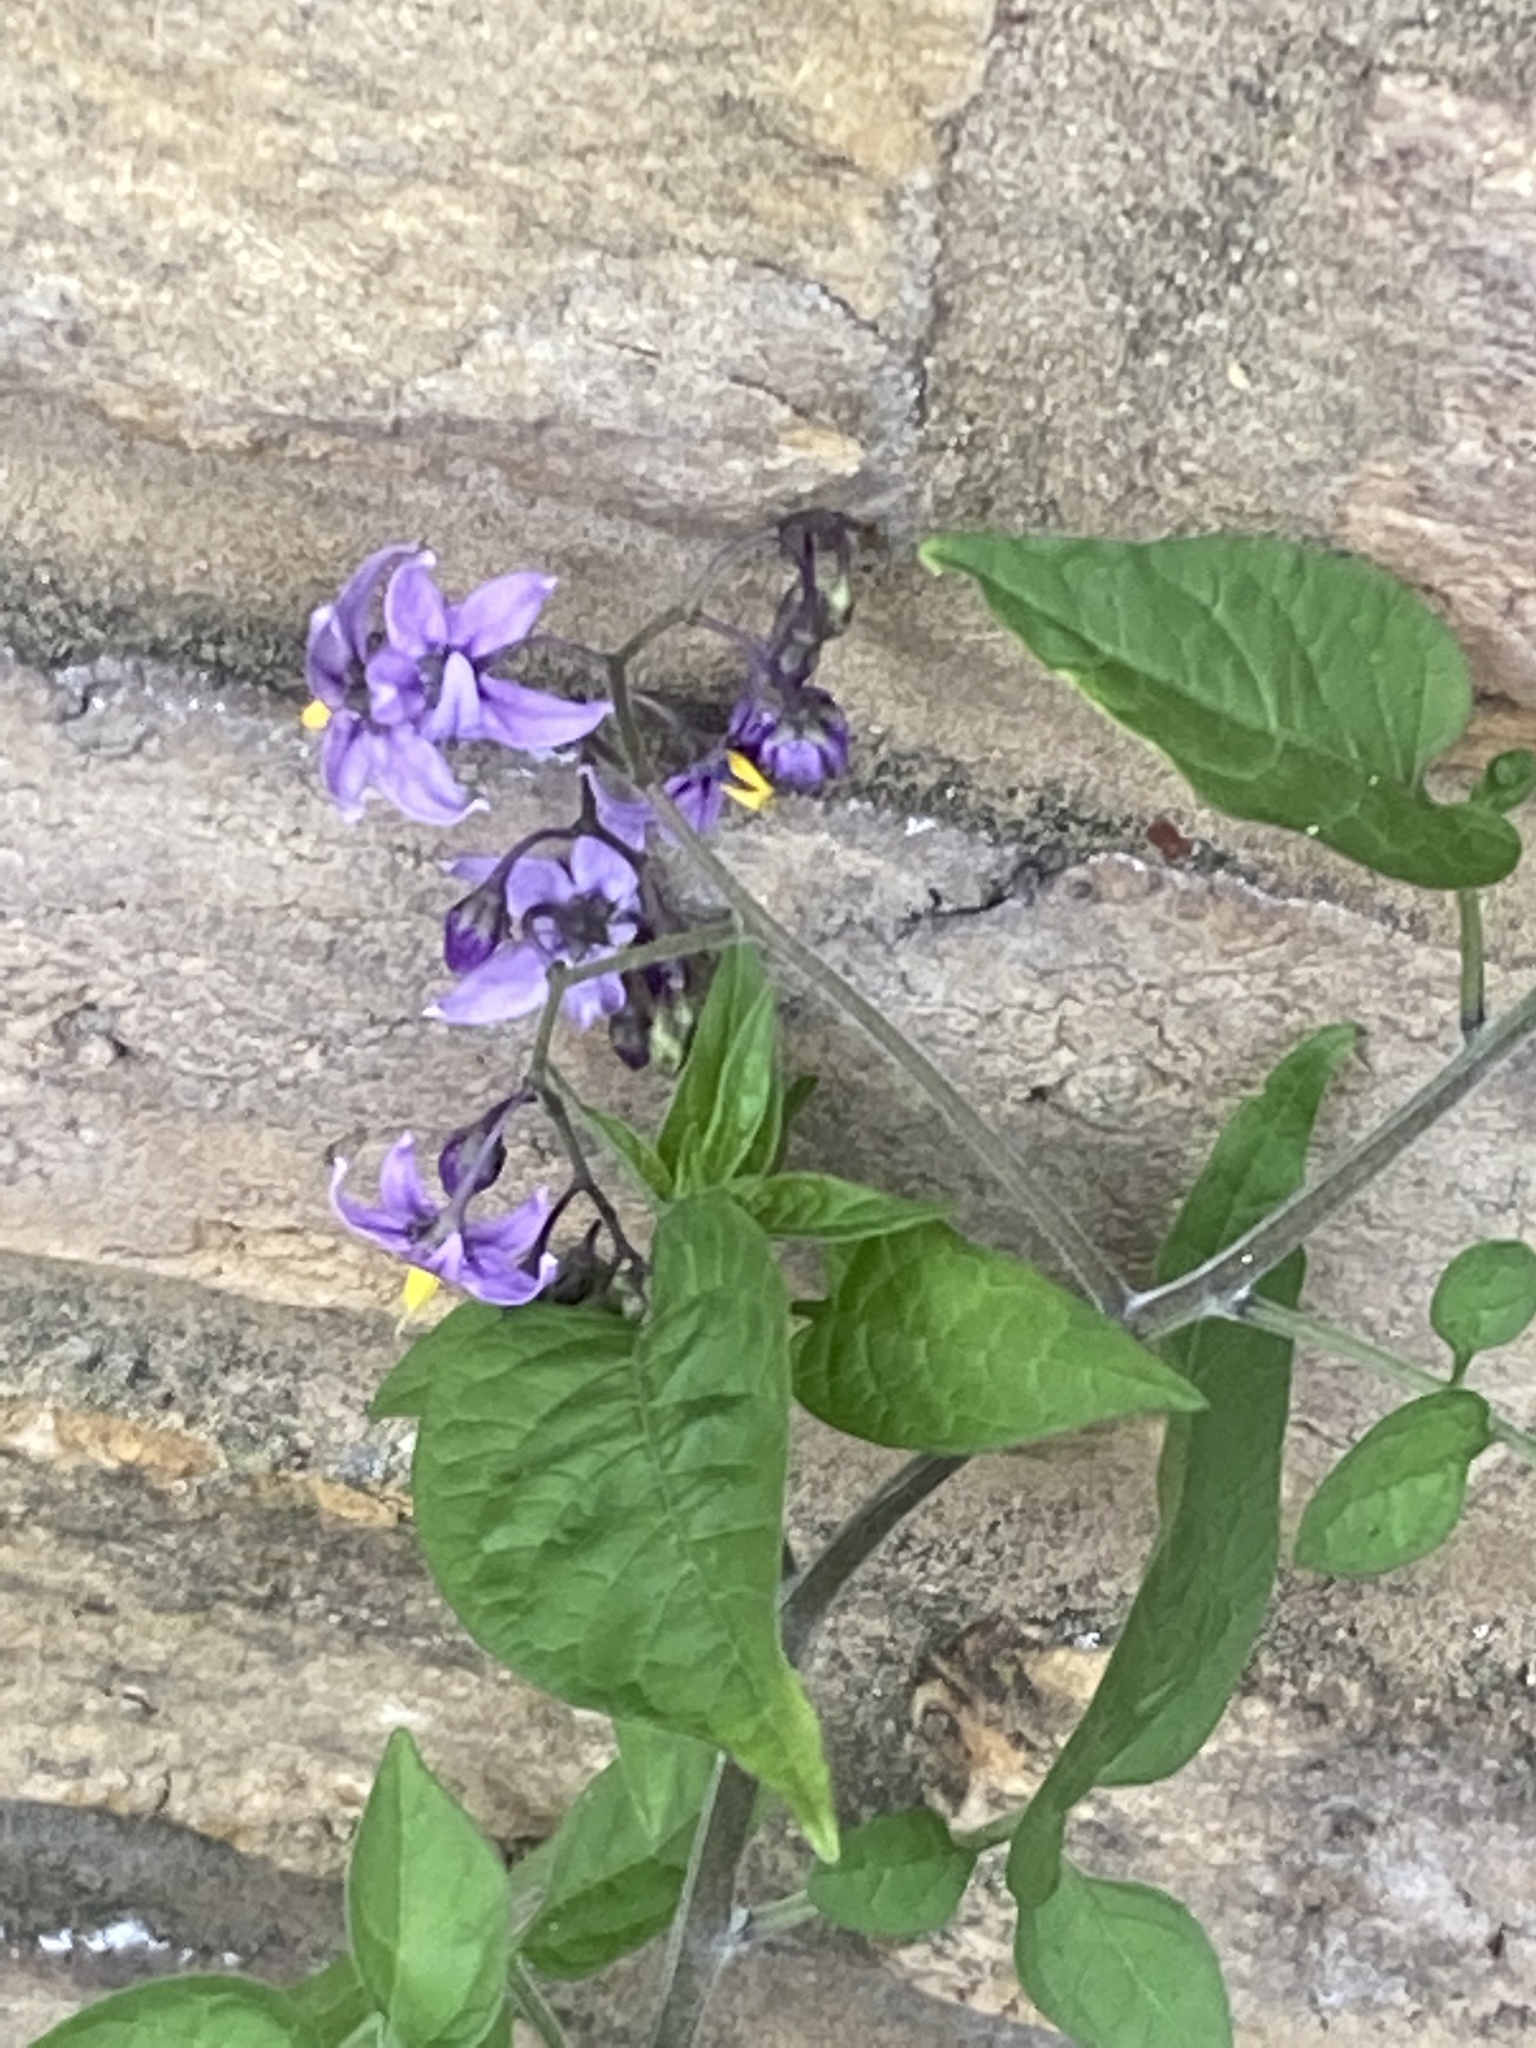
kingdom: Plantae
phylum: Tracheophyta
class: Magnoliopsida
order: Solanales
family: Solanaceae
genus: Solanum
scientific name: Solanum dulcamara
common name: Climbing nightshade
